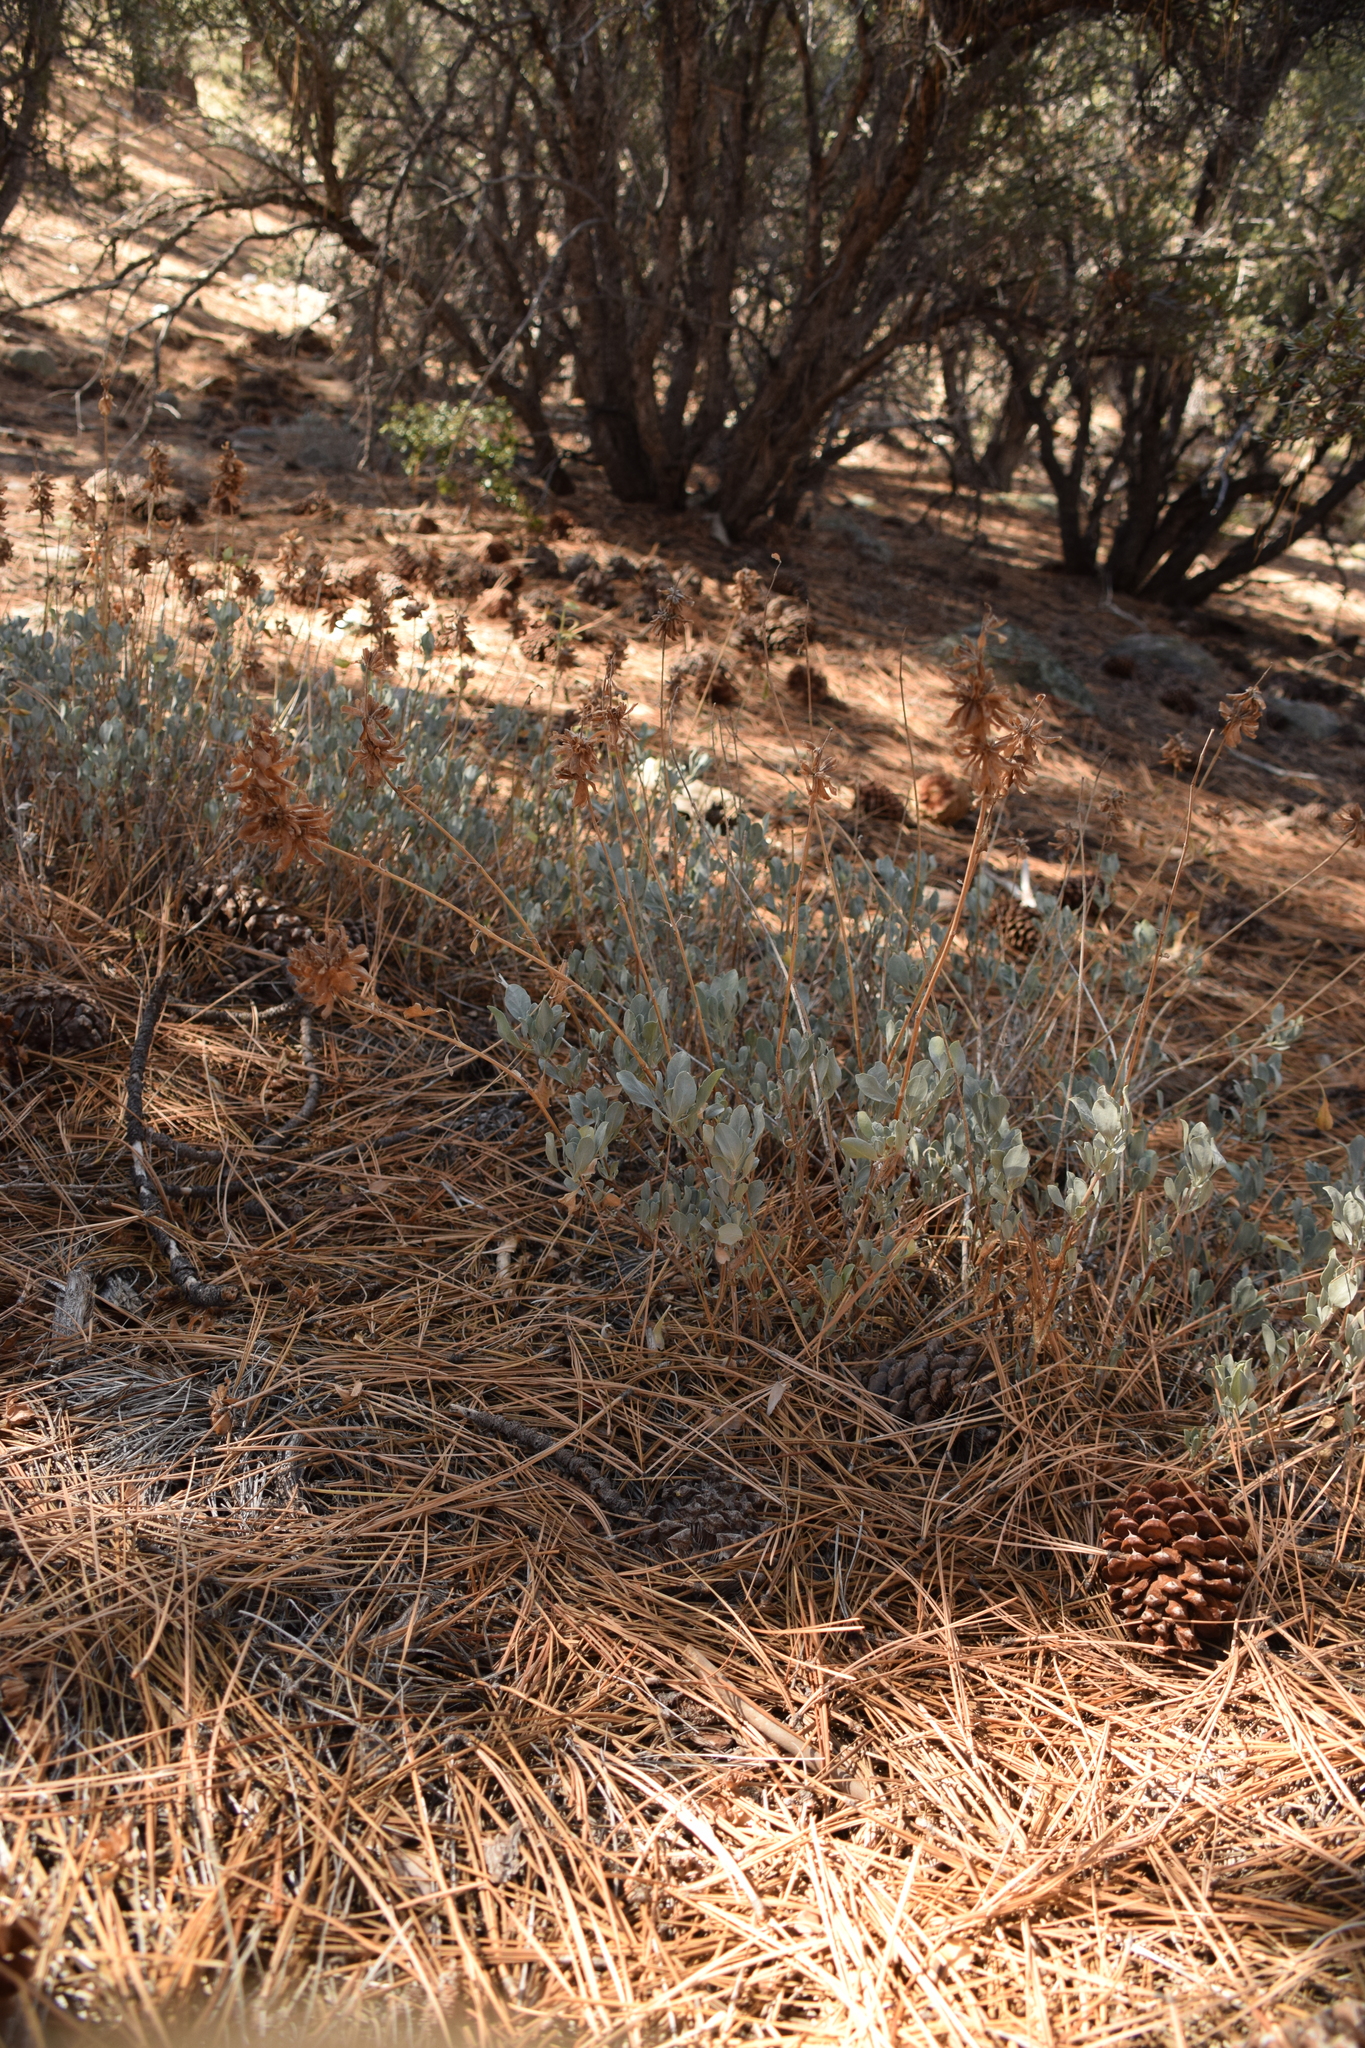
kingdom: Plantae
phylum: Tracheophyta
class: Magnoliopsida
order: Lamiales
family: Lamiaceae
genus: Salvia
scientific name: Salvia pachyphylla
